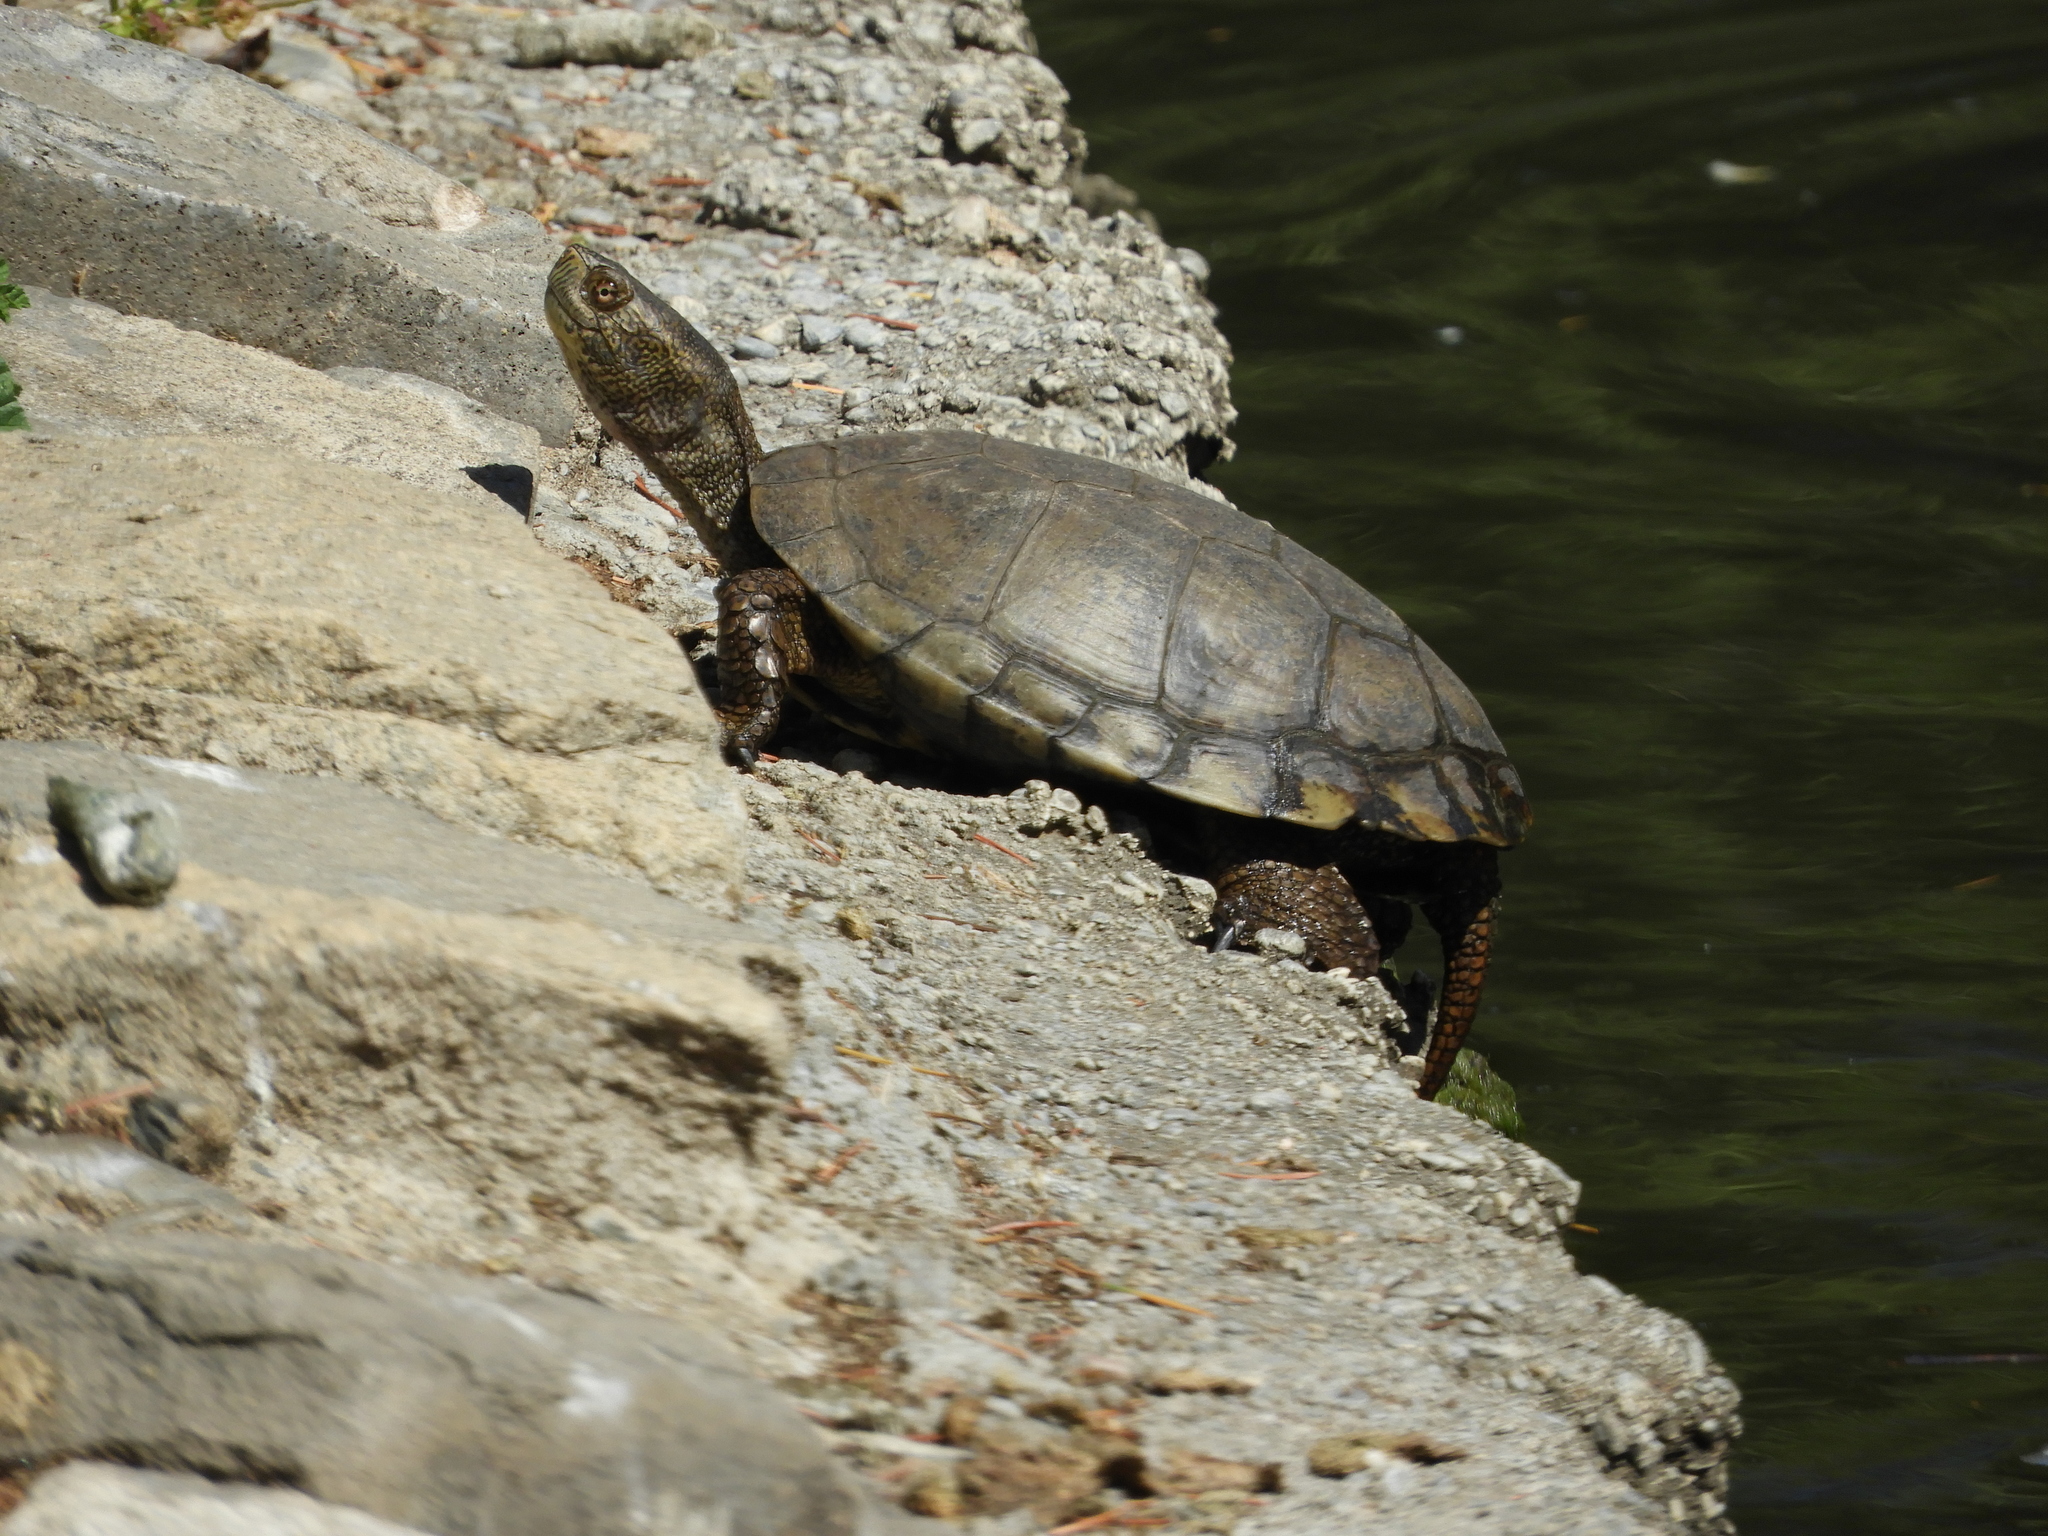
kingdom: Animalia
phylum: Chordata
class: Testudines
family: Emydidae
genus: Actinemys
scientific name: Actinemys marmorata
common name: Western pond turtle
